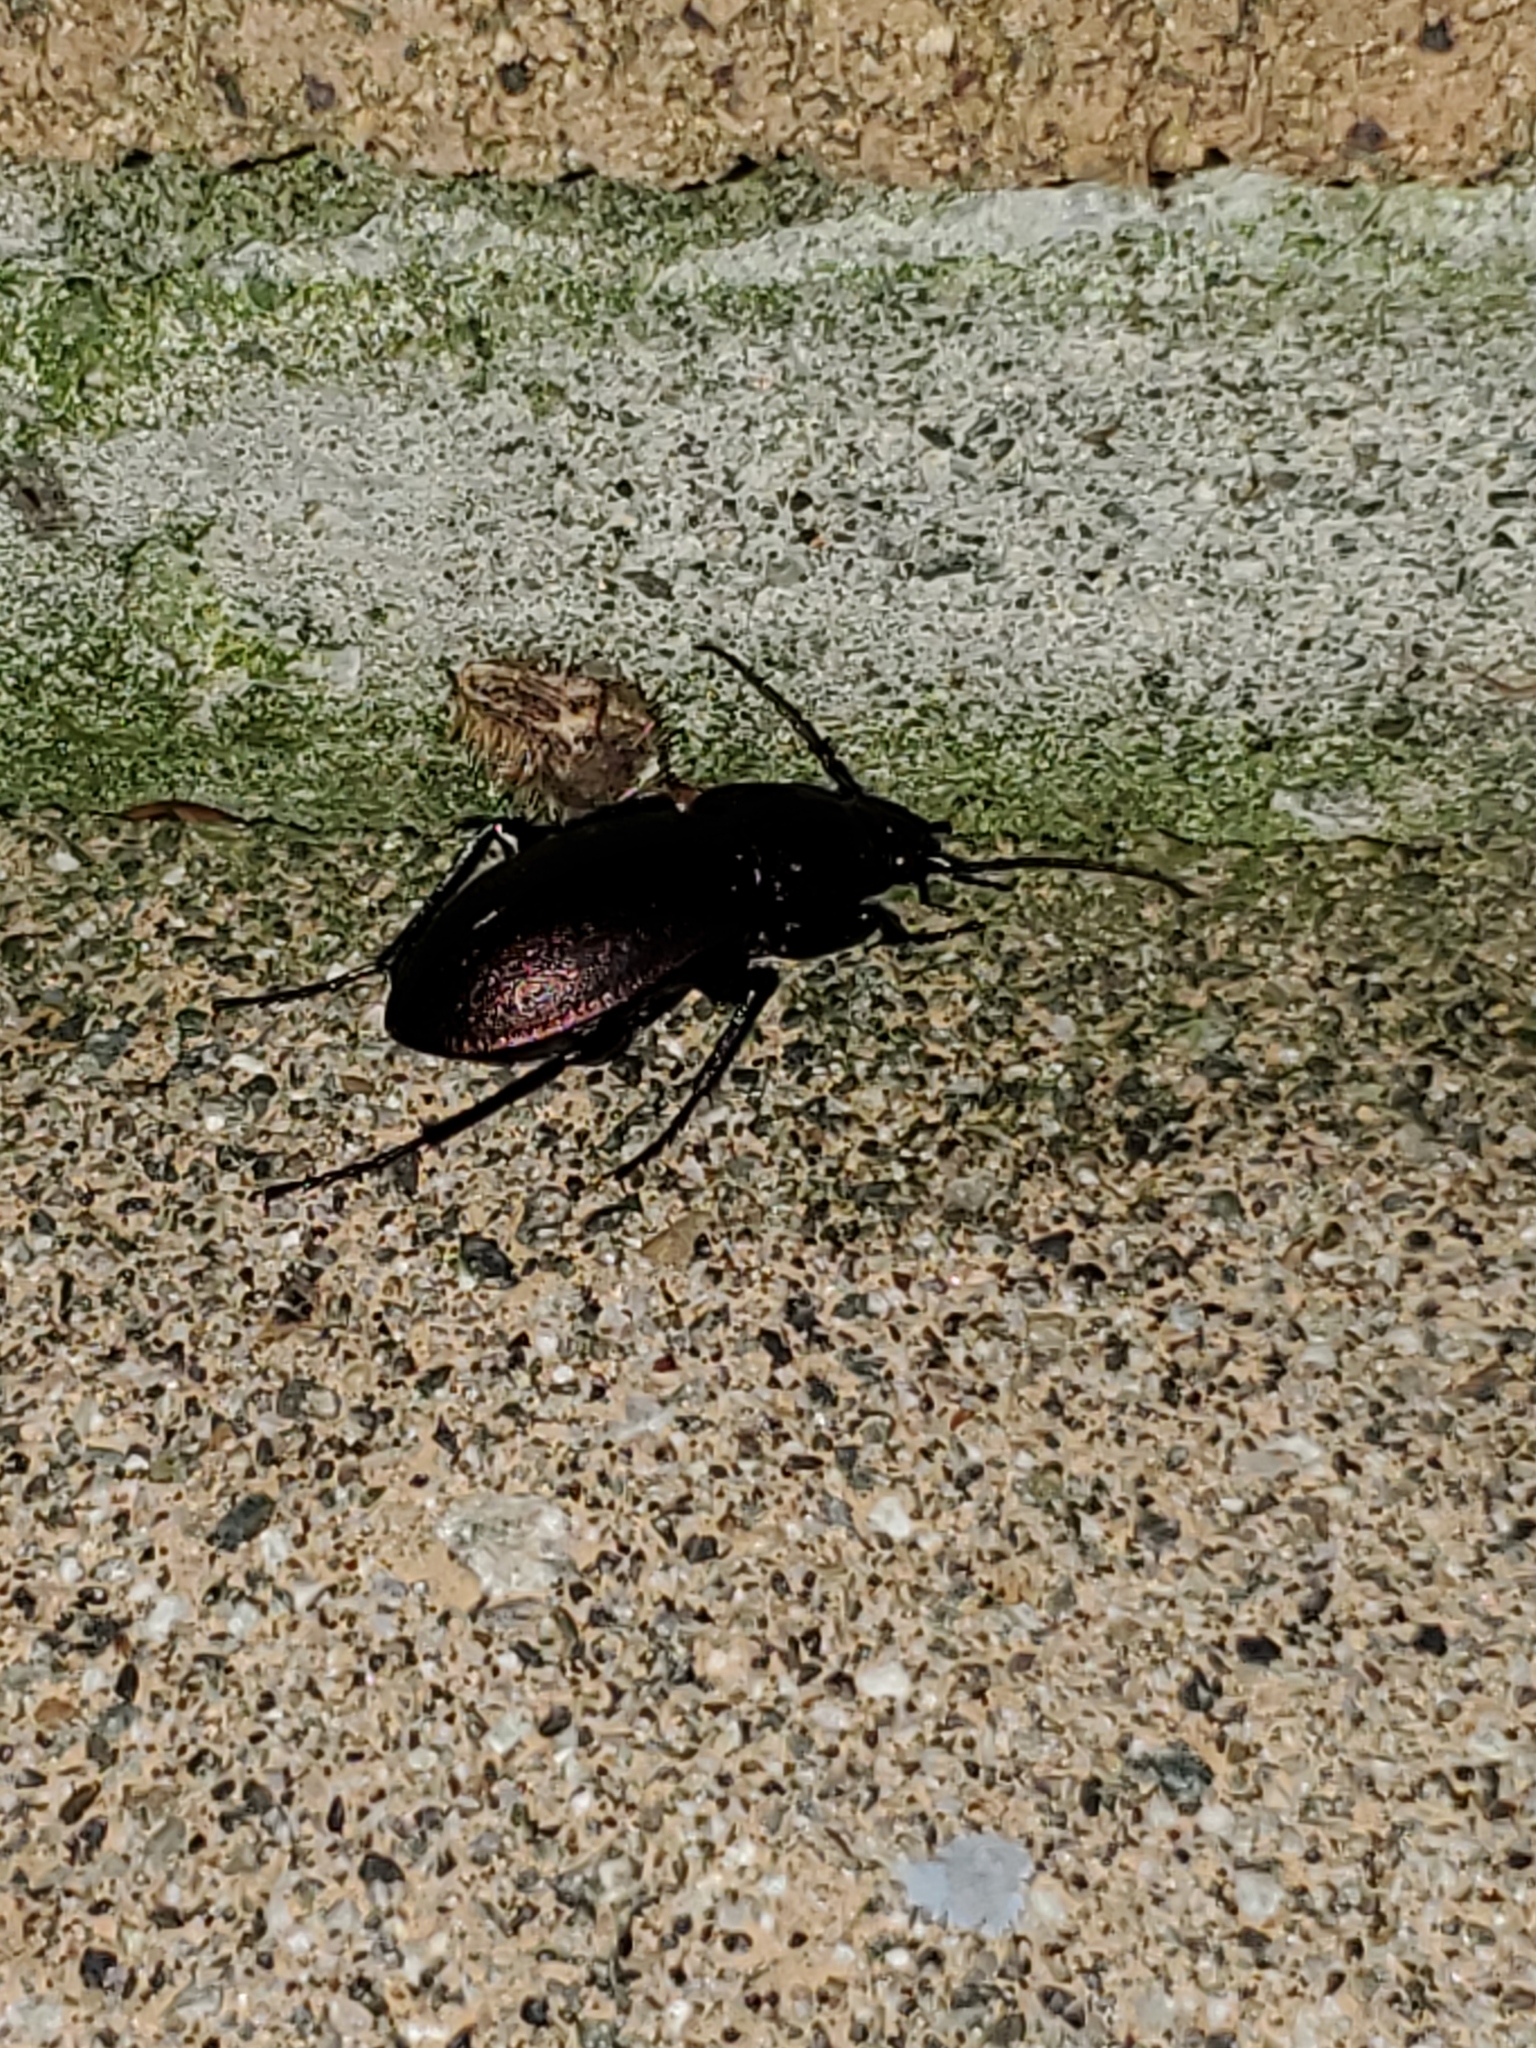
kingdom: Animalia
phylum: Arthropoda
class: Insecta
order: Coleoptera
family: Carabidae
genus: Carabus
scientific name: Carabus nemoralis
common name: European ground beetle
